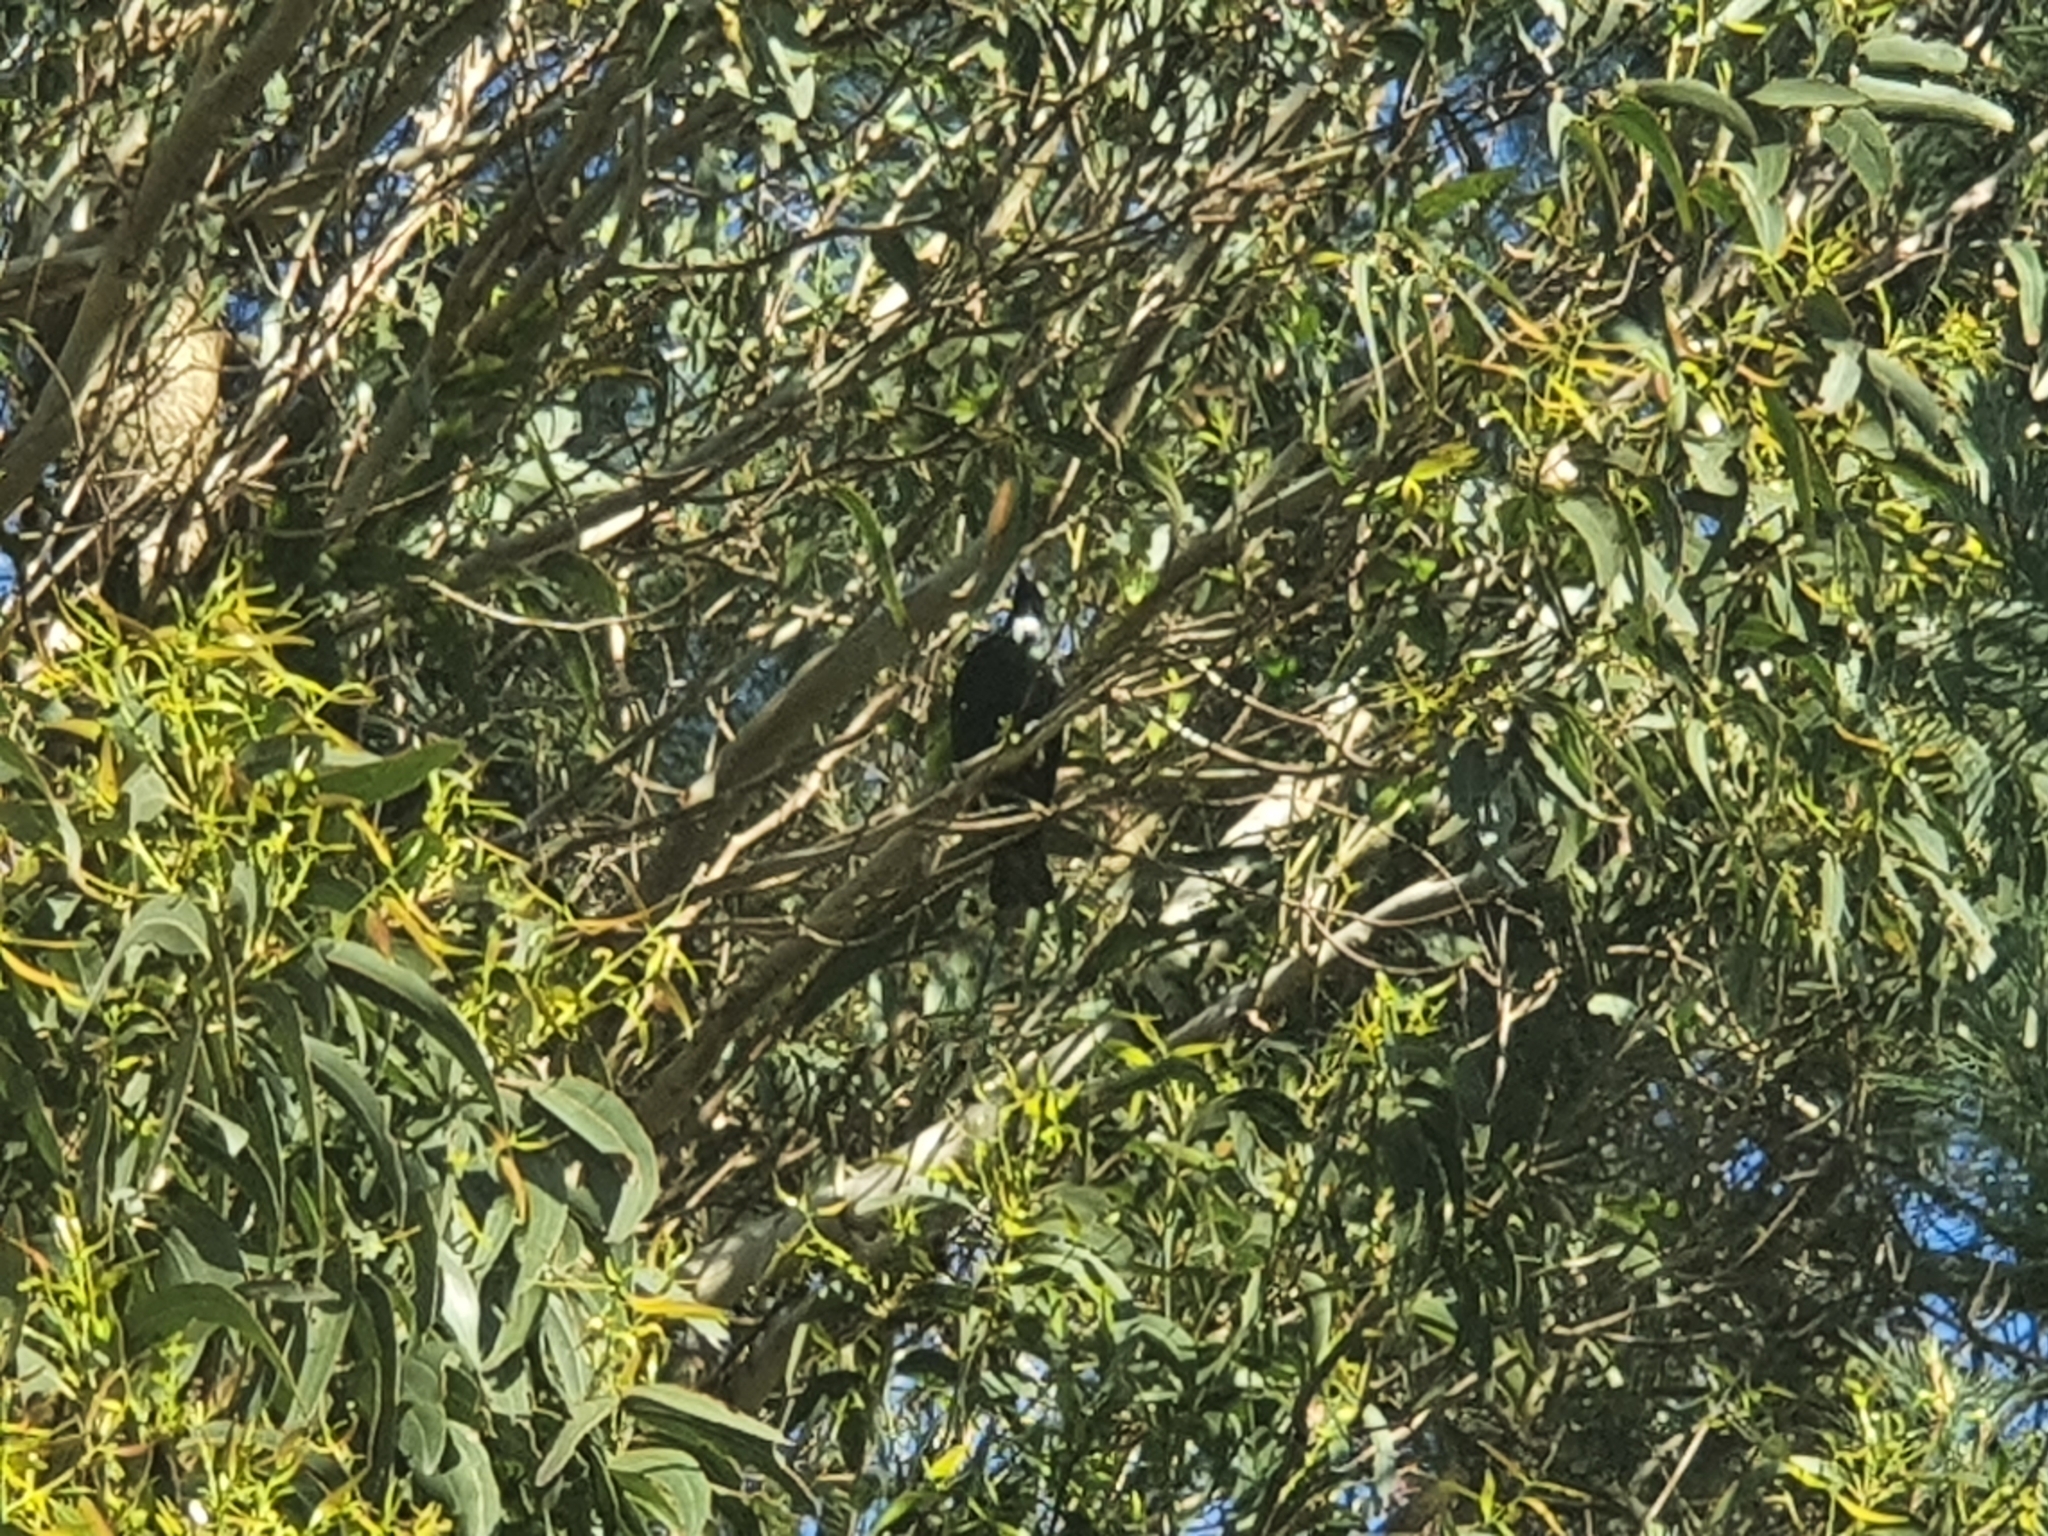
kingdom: Animalia
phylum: Chordata
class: Aves
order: Passeriformes
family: Meliphagidae
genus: Prosthemadera
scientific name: Prosthemadera novaeseelandiae
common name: Tui
